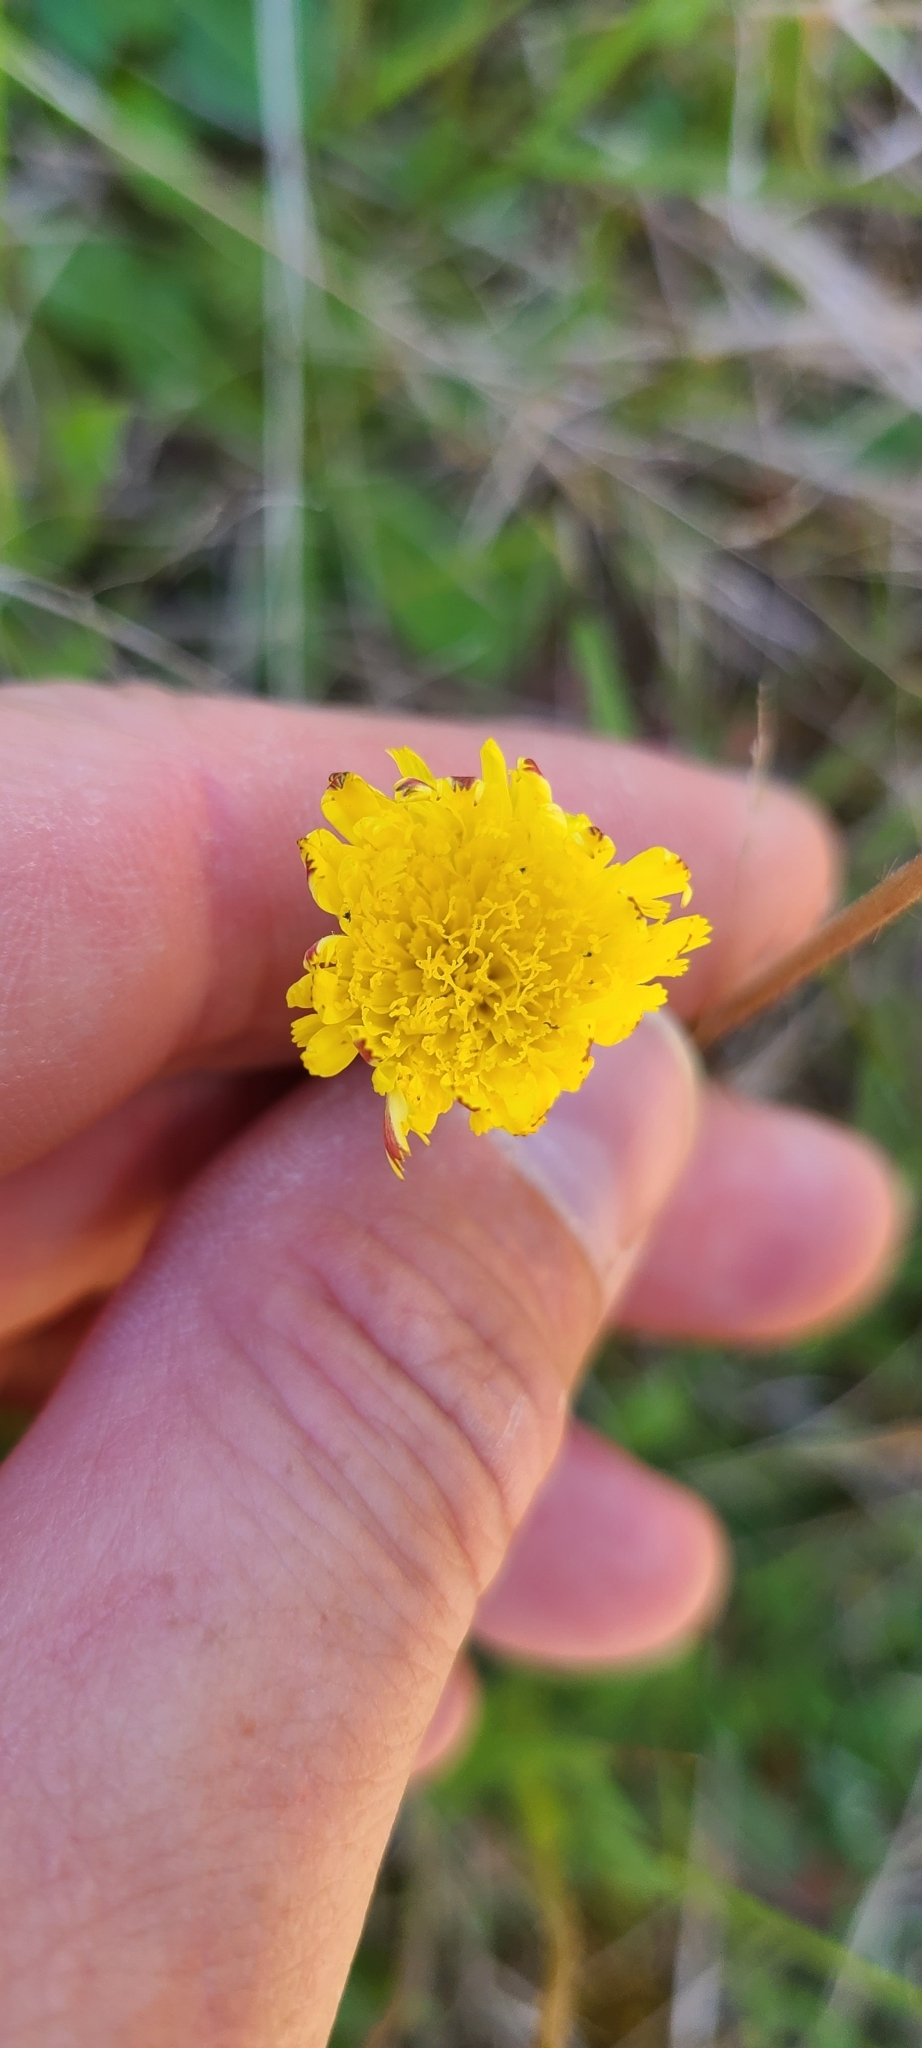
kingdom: Plantae
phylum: Tracheophyta
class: Magnoliopsida
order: Asterales
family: Asteraceae
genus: Pilosella
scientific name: Pilosella officinarum
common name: Mouse-ear hawkweed
